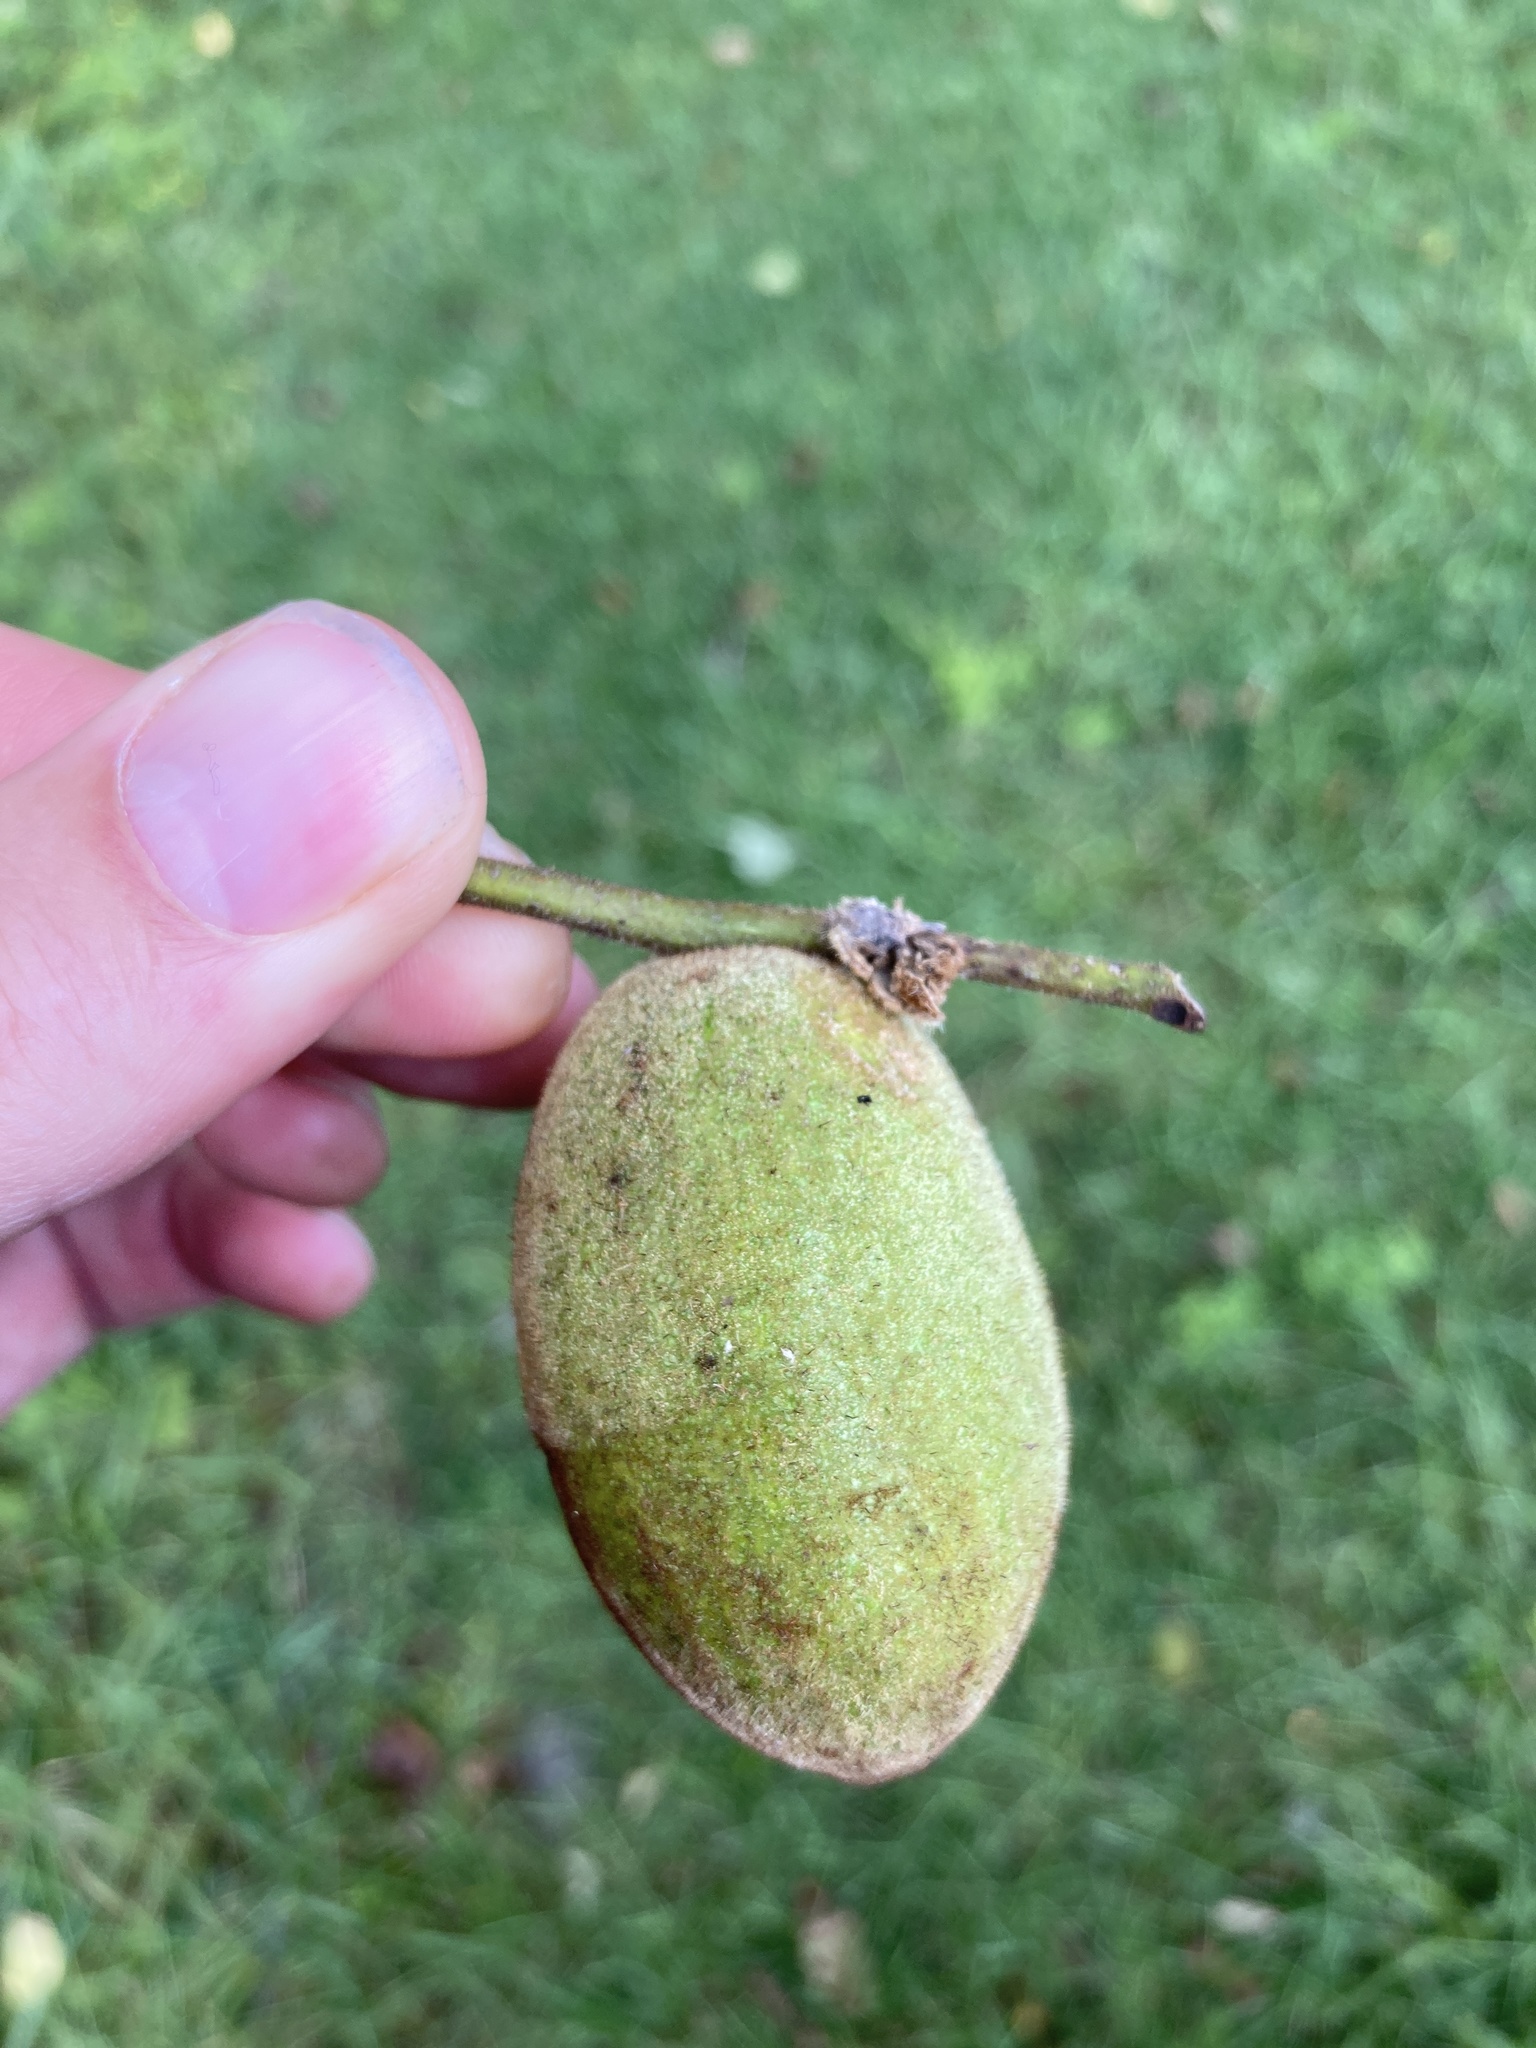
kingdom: Plantae
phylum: Tracheophyta
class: Magnoliopsida
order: Fagales
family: Juglandaceae
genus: Juglans
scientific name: Juglans cinerea
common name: Butternut
